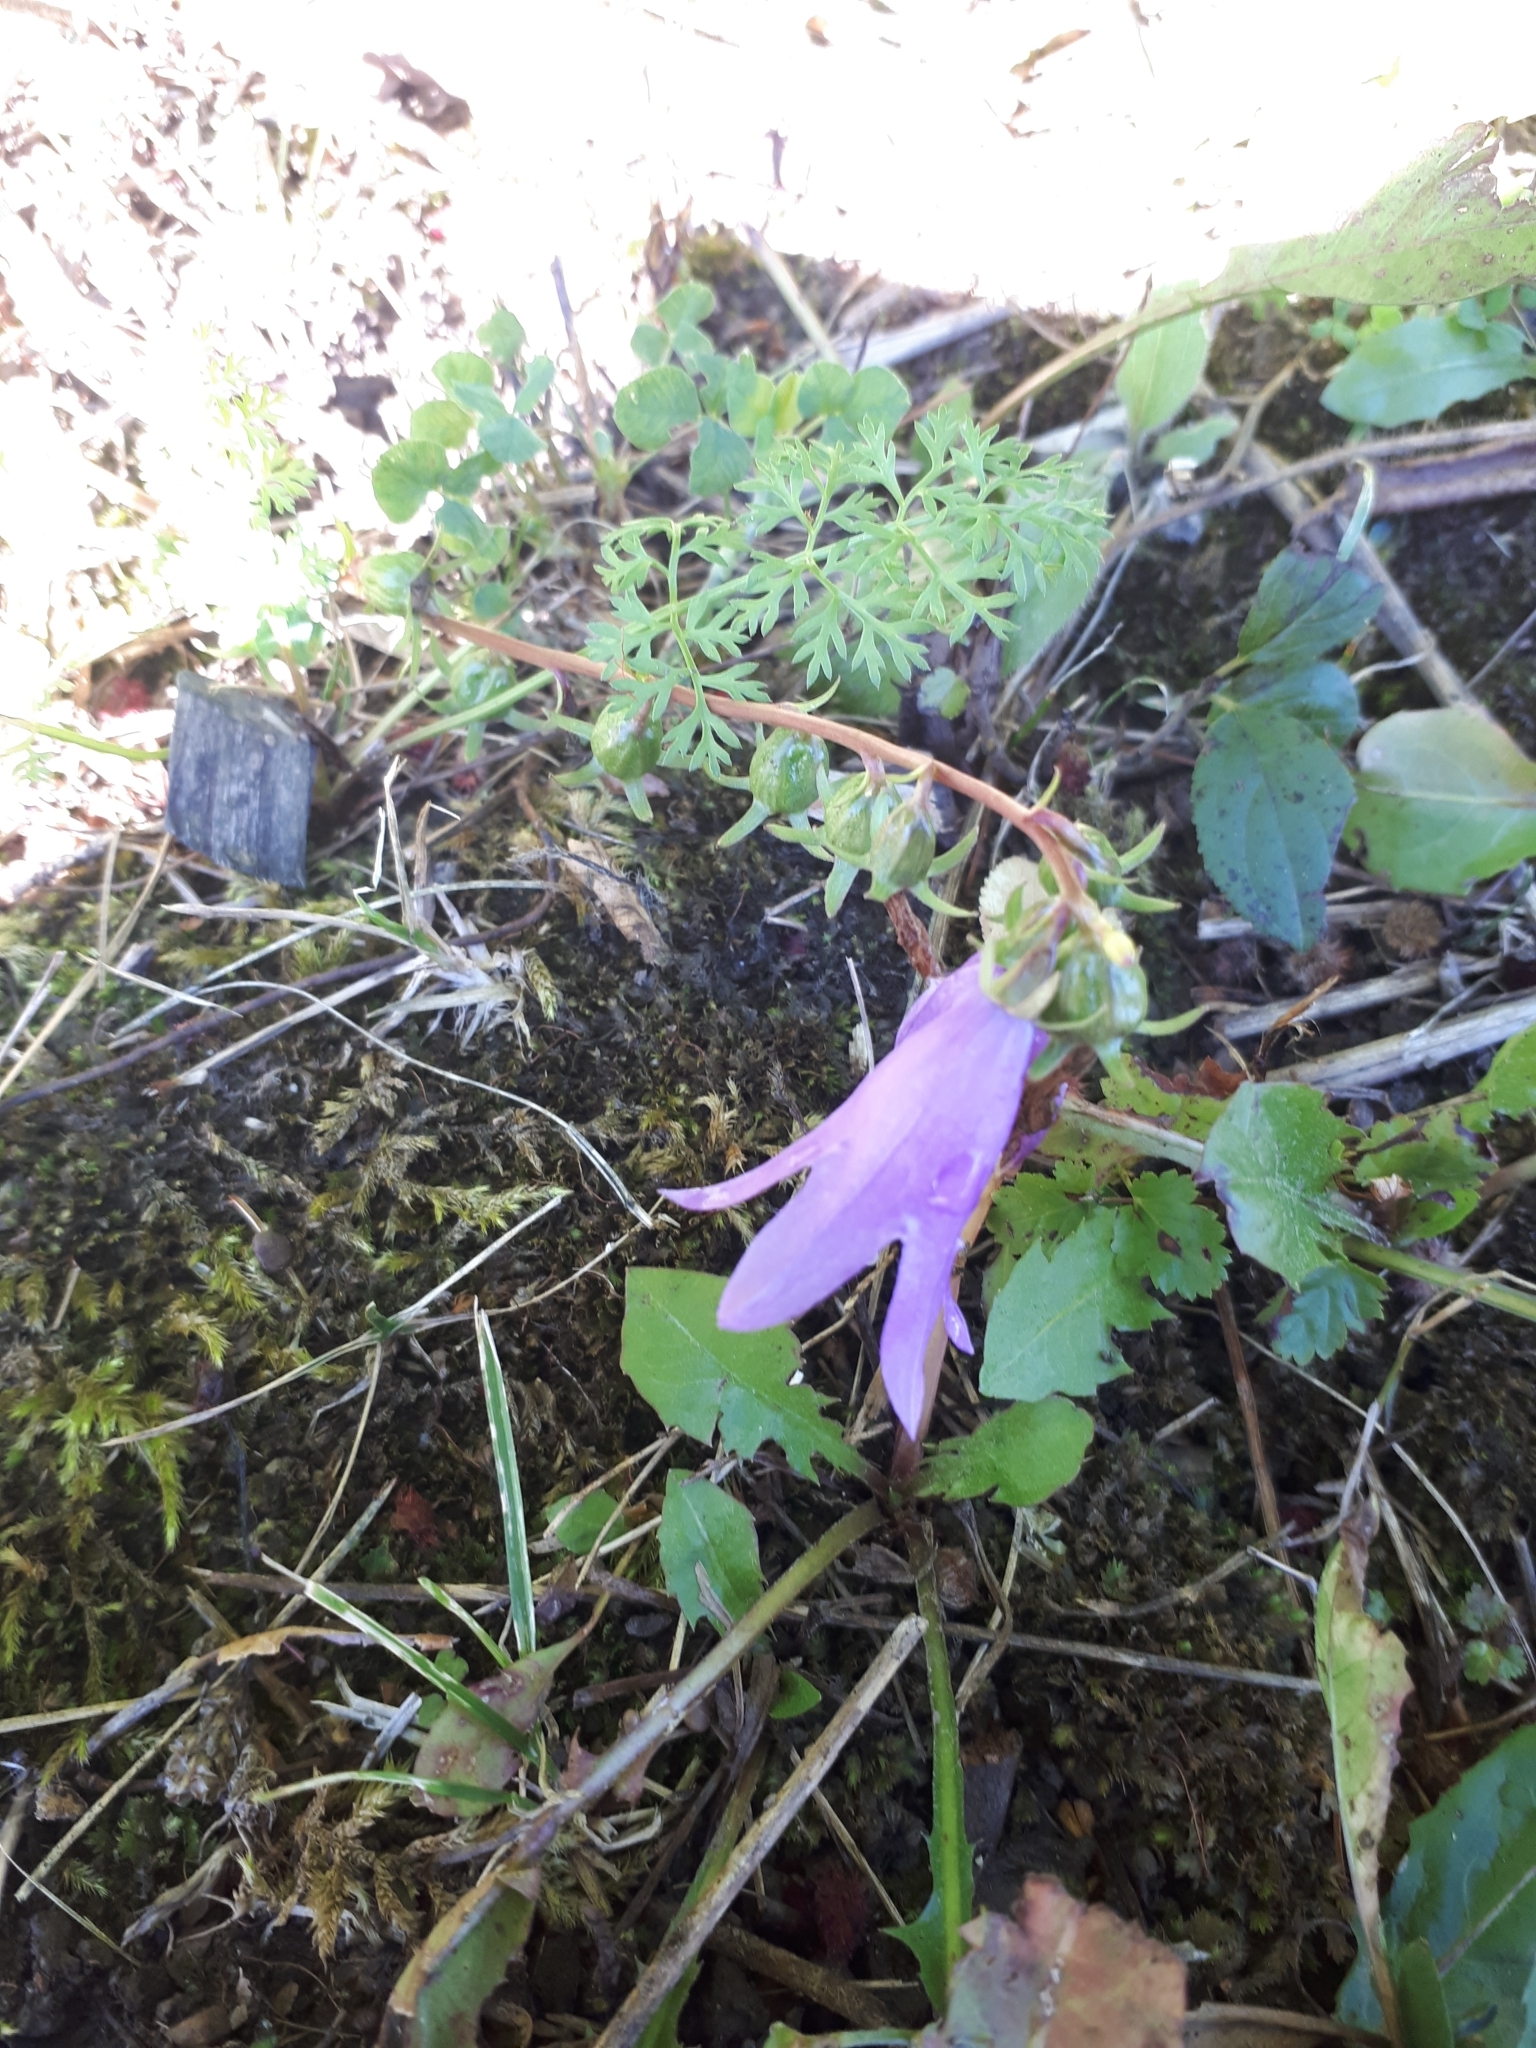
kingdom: Plantae
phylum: Tracheophyta
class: Magnoliopsida
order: Asterales
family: Campanulaceae
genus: Campanula
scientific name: Campanula rapunculoides
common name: Creeping bellflower
